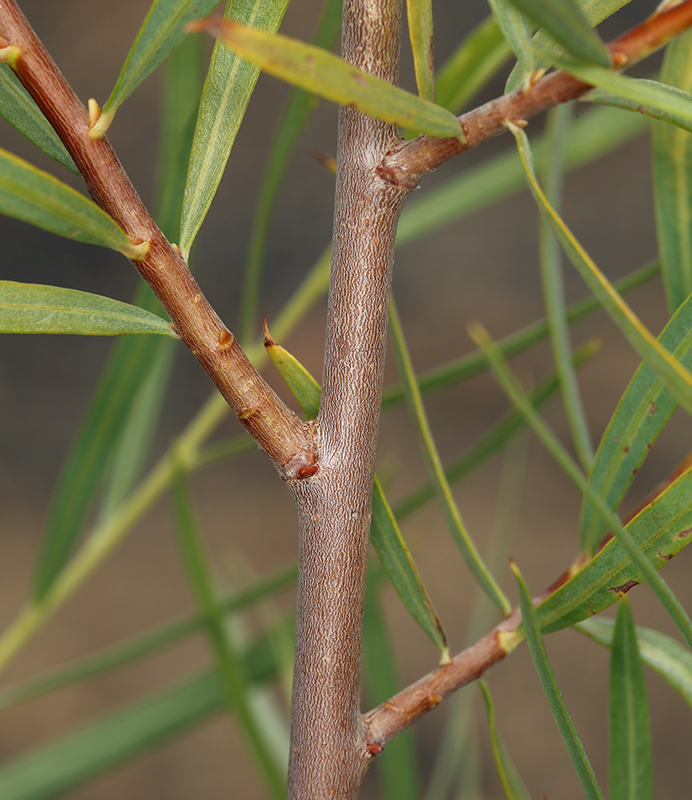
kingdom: Plantae
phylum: Tracheophyta
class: Magnoliopsida
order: Malpighiales
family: Salicaceae
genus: Salix
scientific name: Salix exigua
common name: Coyote willow
